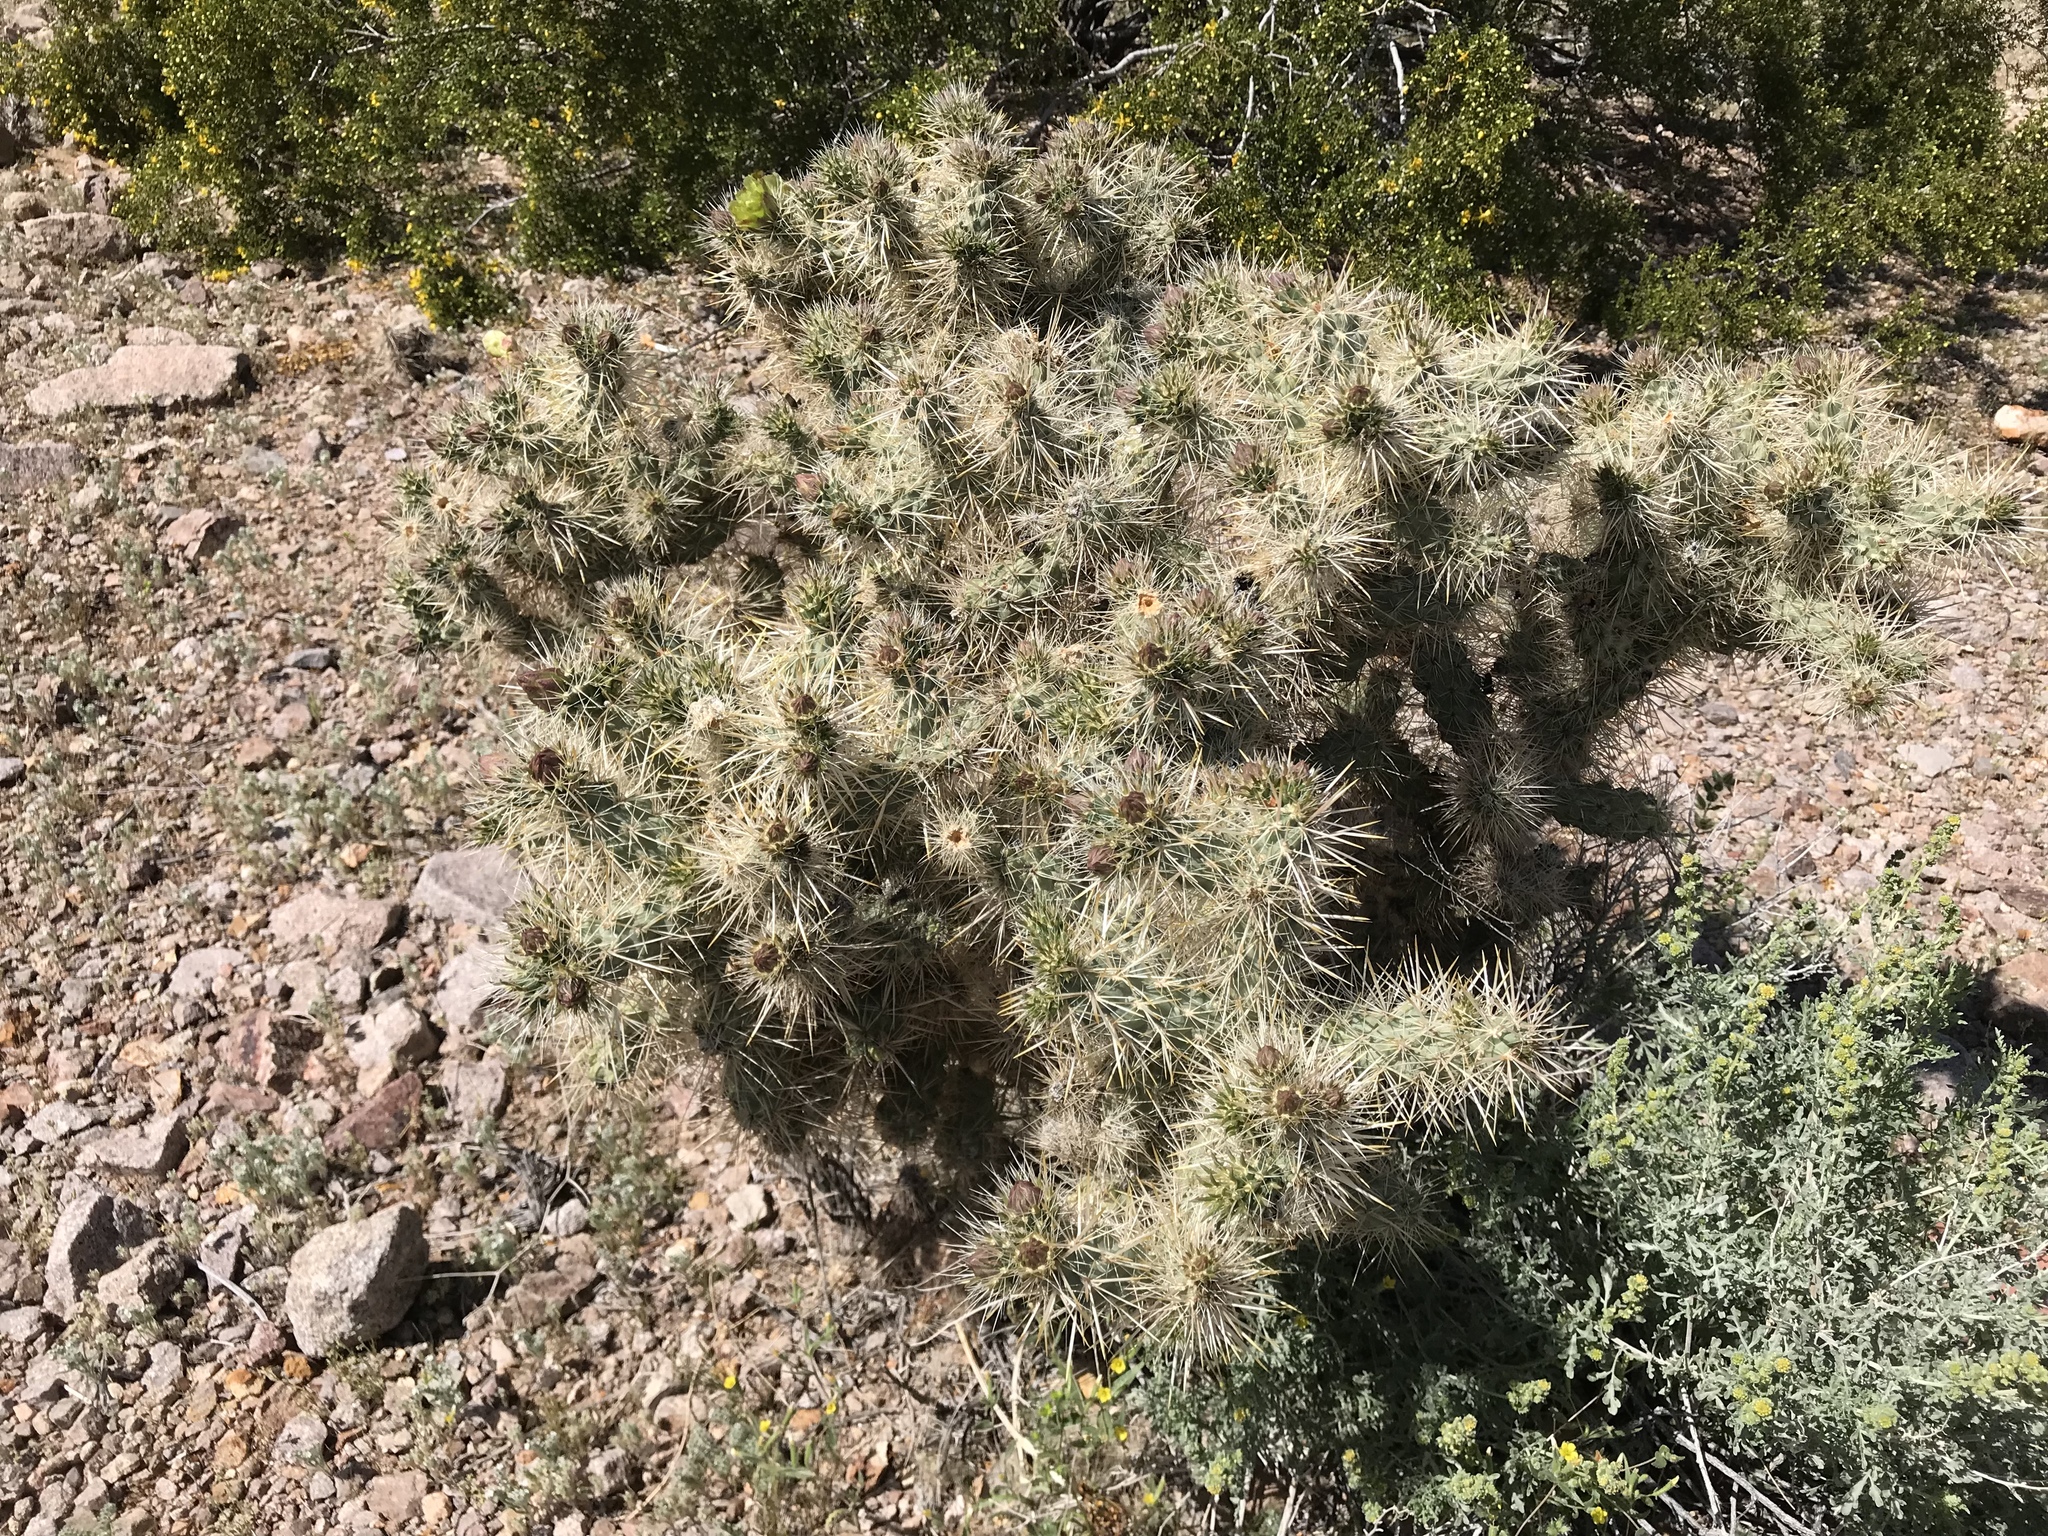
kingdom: Plantae
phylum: Tracheophyta
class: Magnoliopsida
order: Caryophyllales
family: Cactaceae
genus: Cylindropuntia
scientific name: Cylindropuntia echinocarpa
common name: Ground cholla
